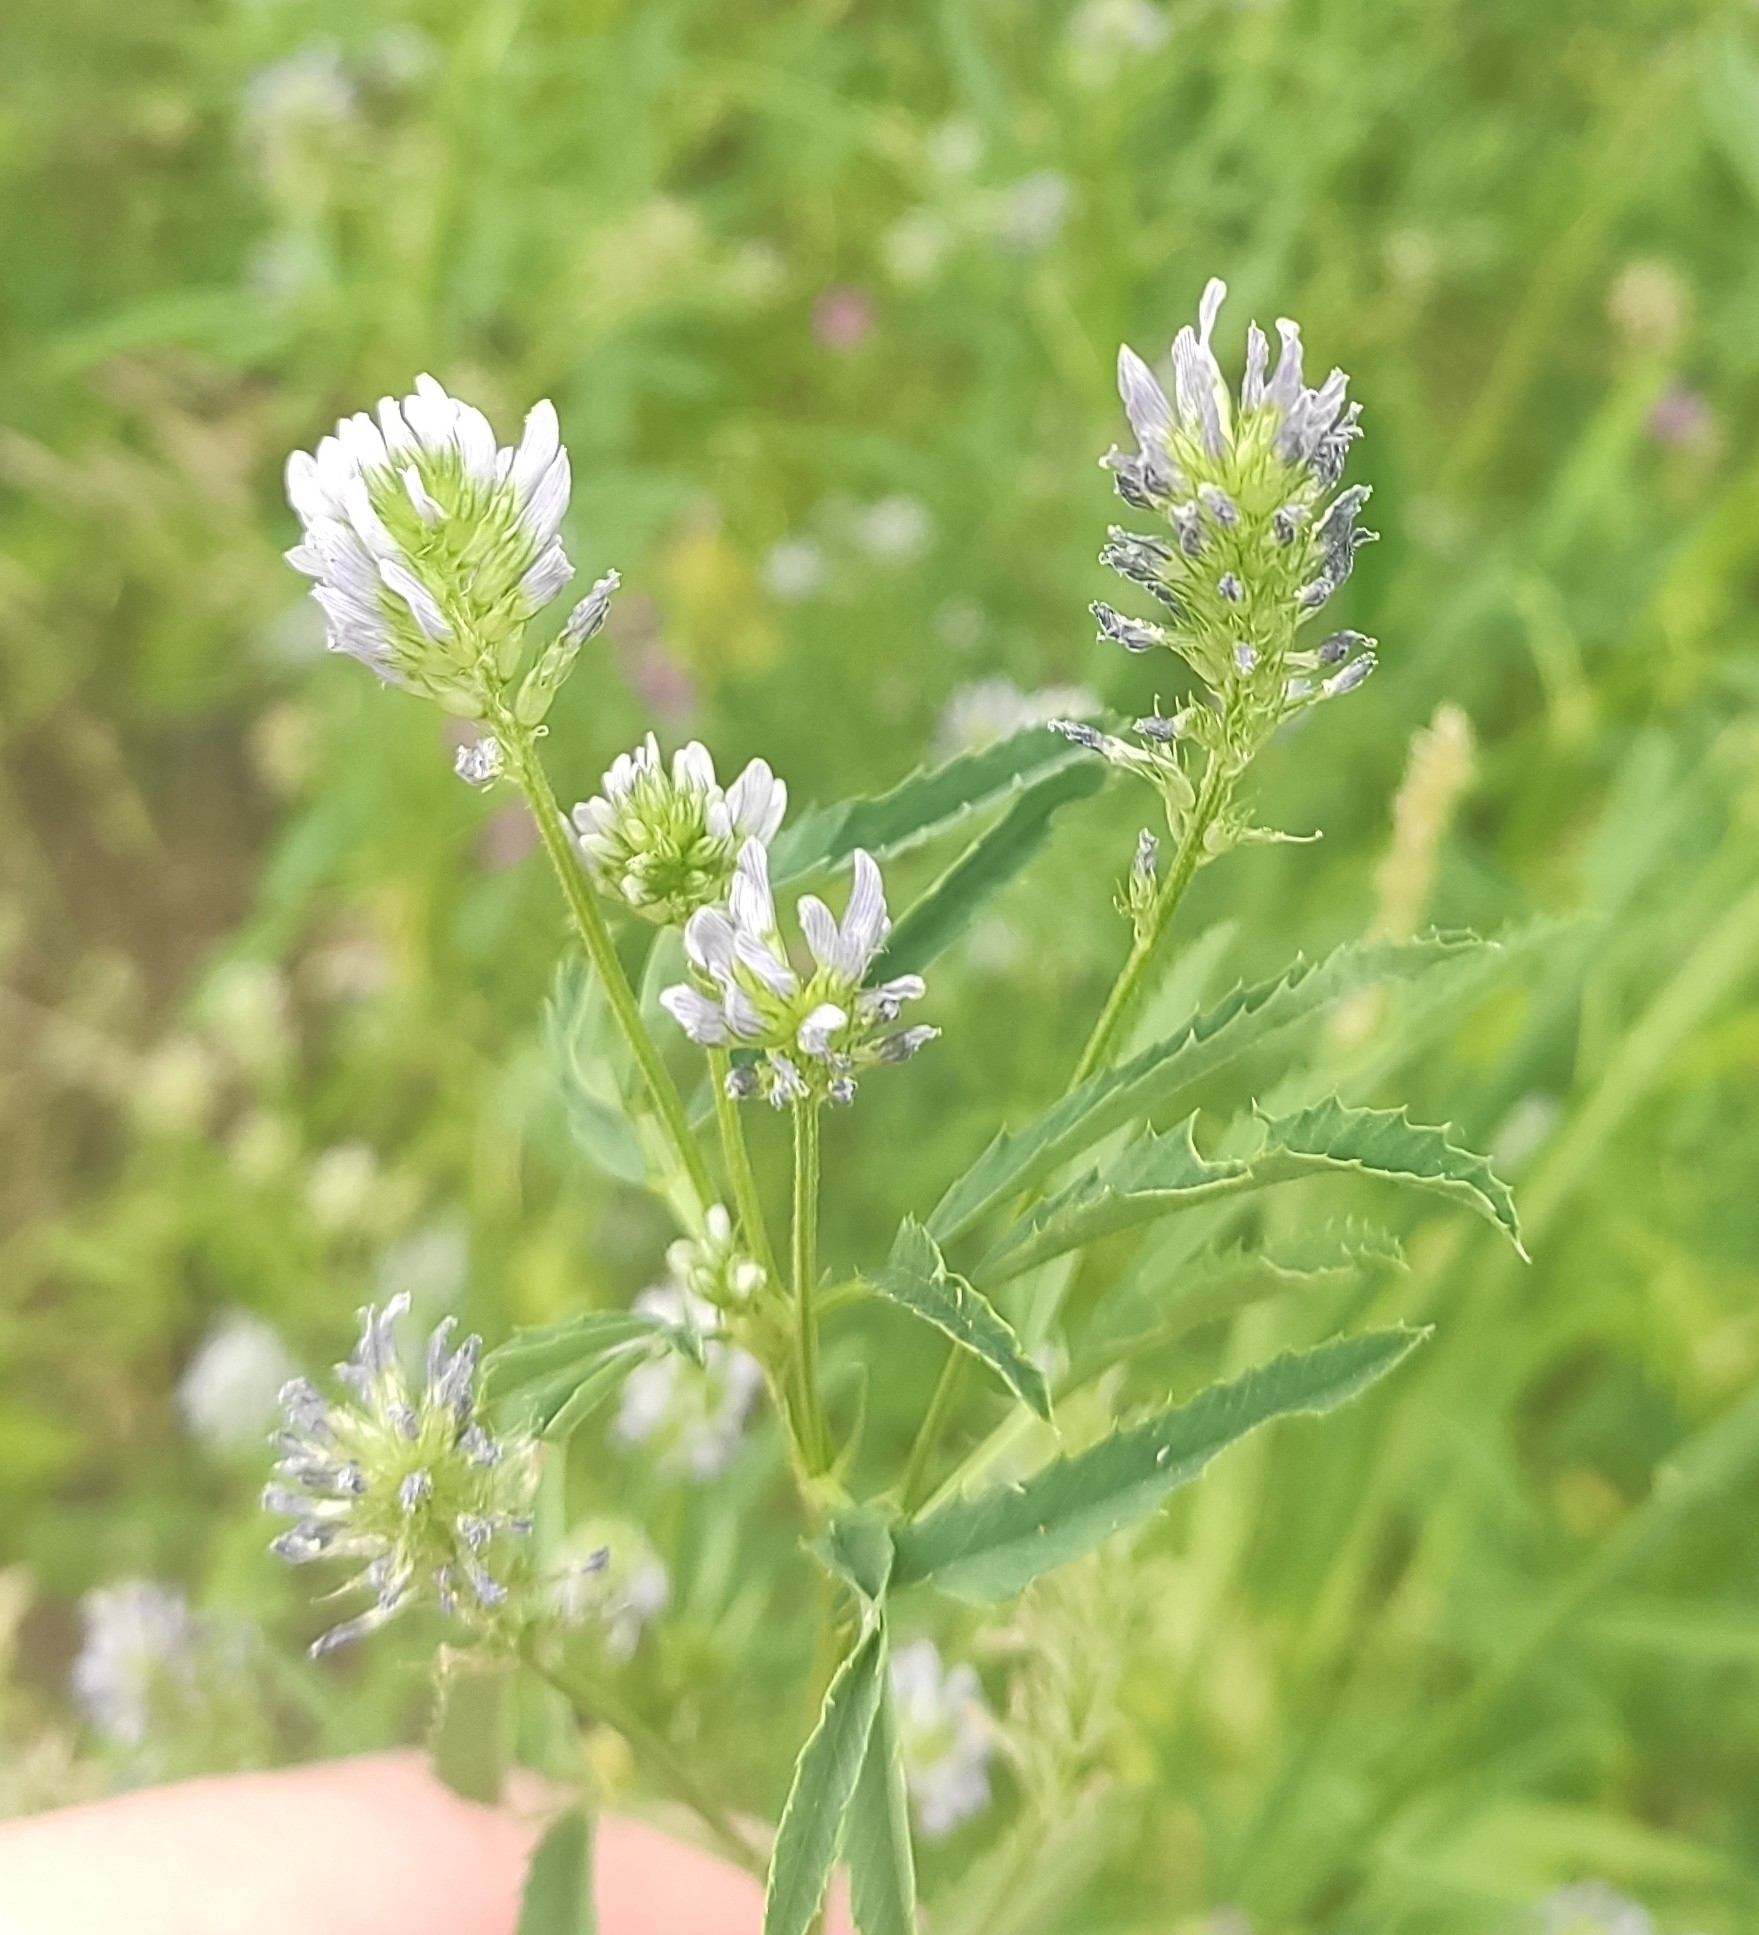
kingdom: Plantae
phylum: Tracheophyta
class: Magnoliopsida
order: Fabales
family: Fabaceae
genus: Trigonella
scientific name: Trigonella caerulea
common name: Blue fenugreek
